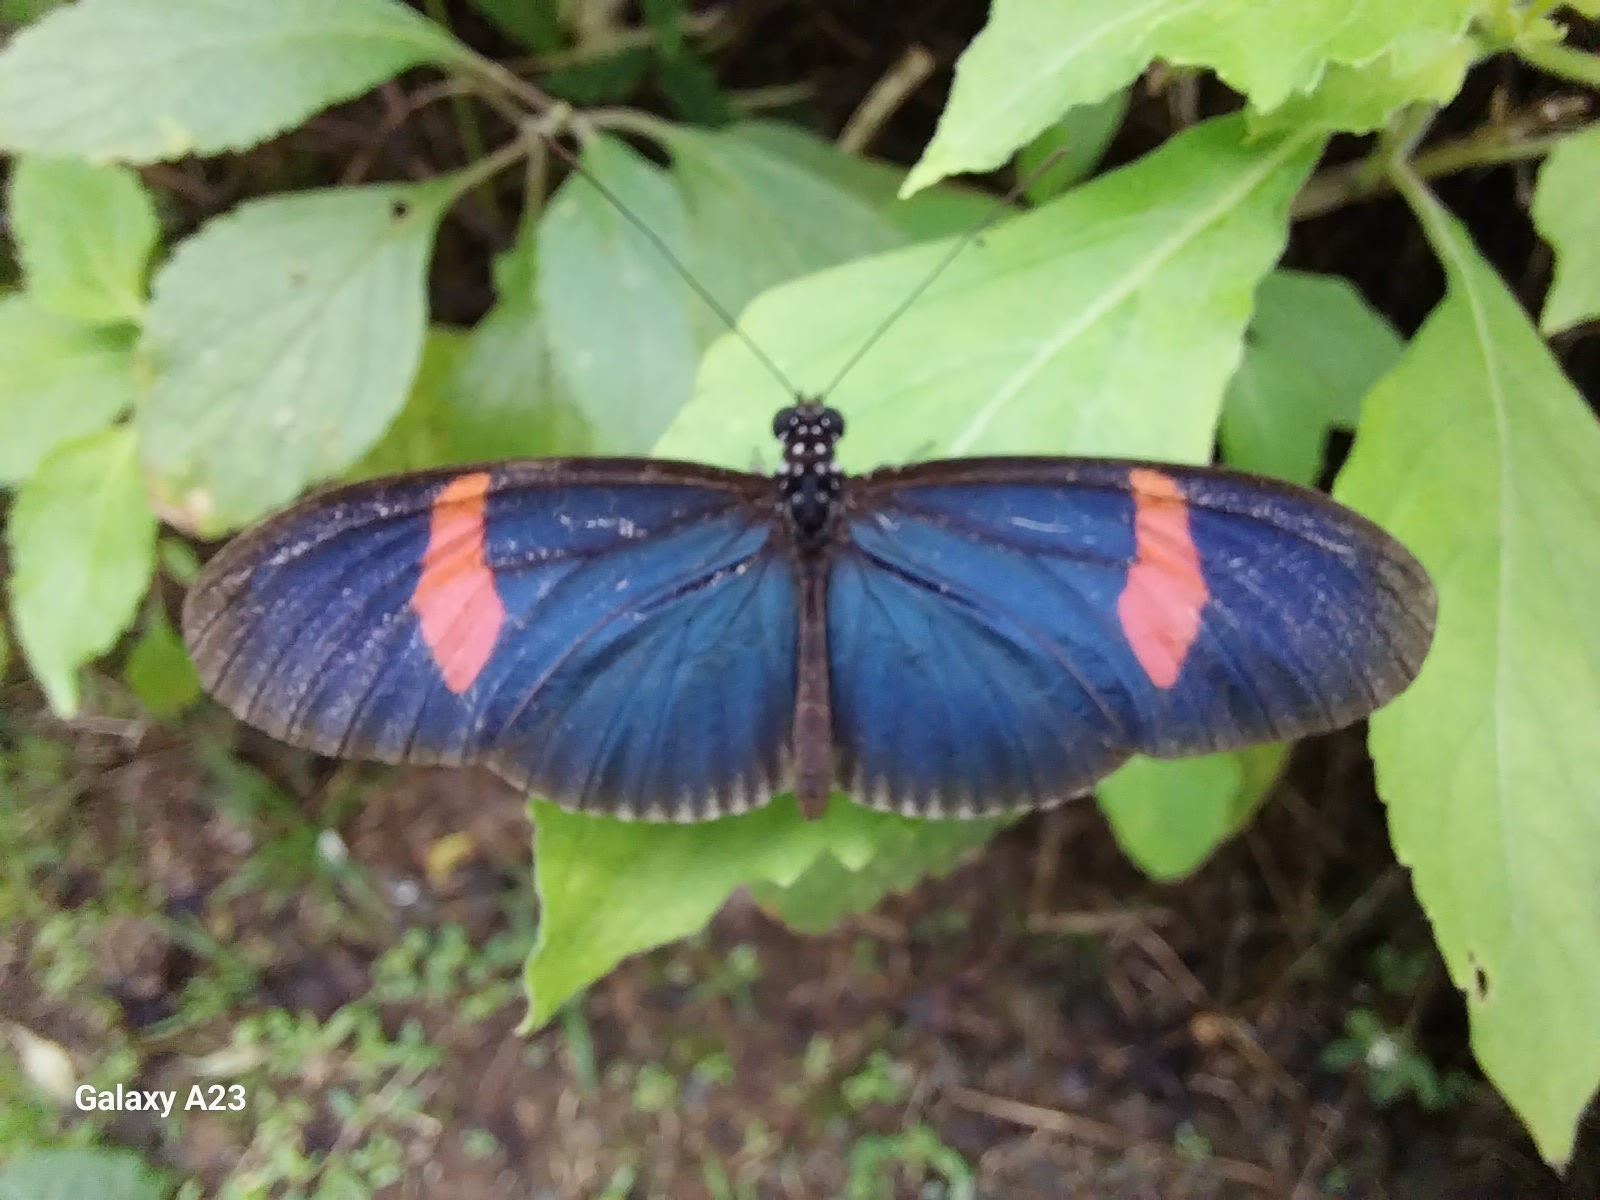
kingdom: Animalia
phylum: Arthropoda
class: Insecta
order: Lepidoptera
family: Nymphalidae
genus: Heliconius
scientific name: Heliconius erato
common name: Common patch longwing
